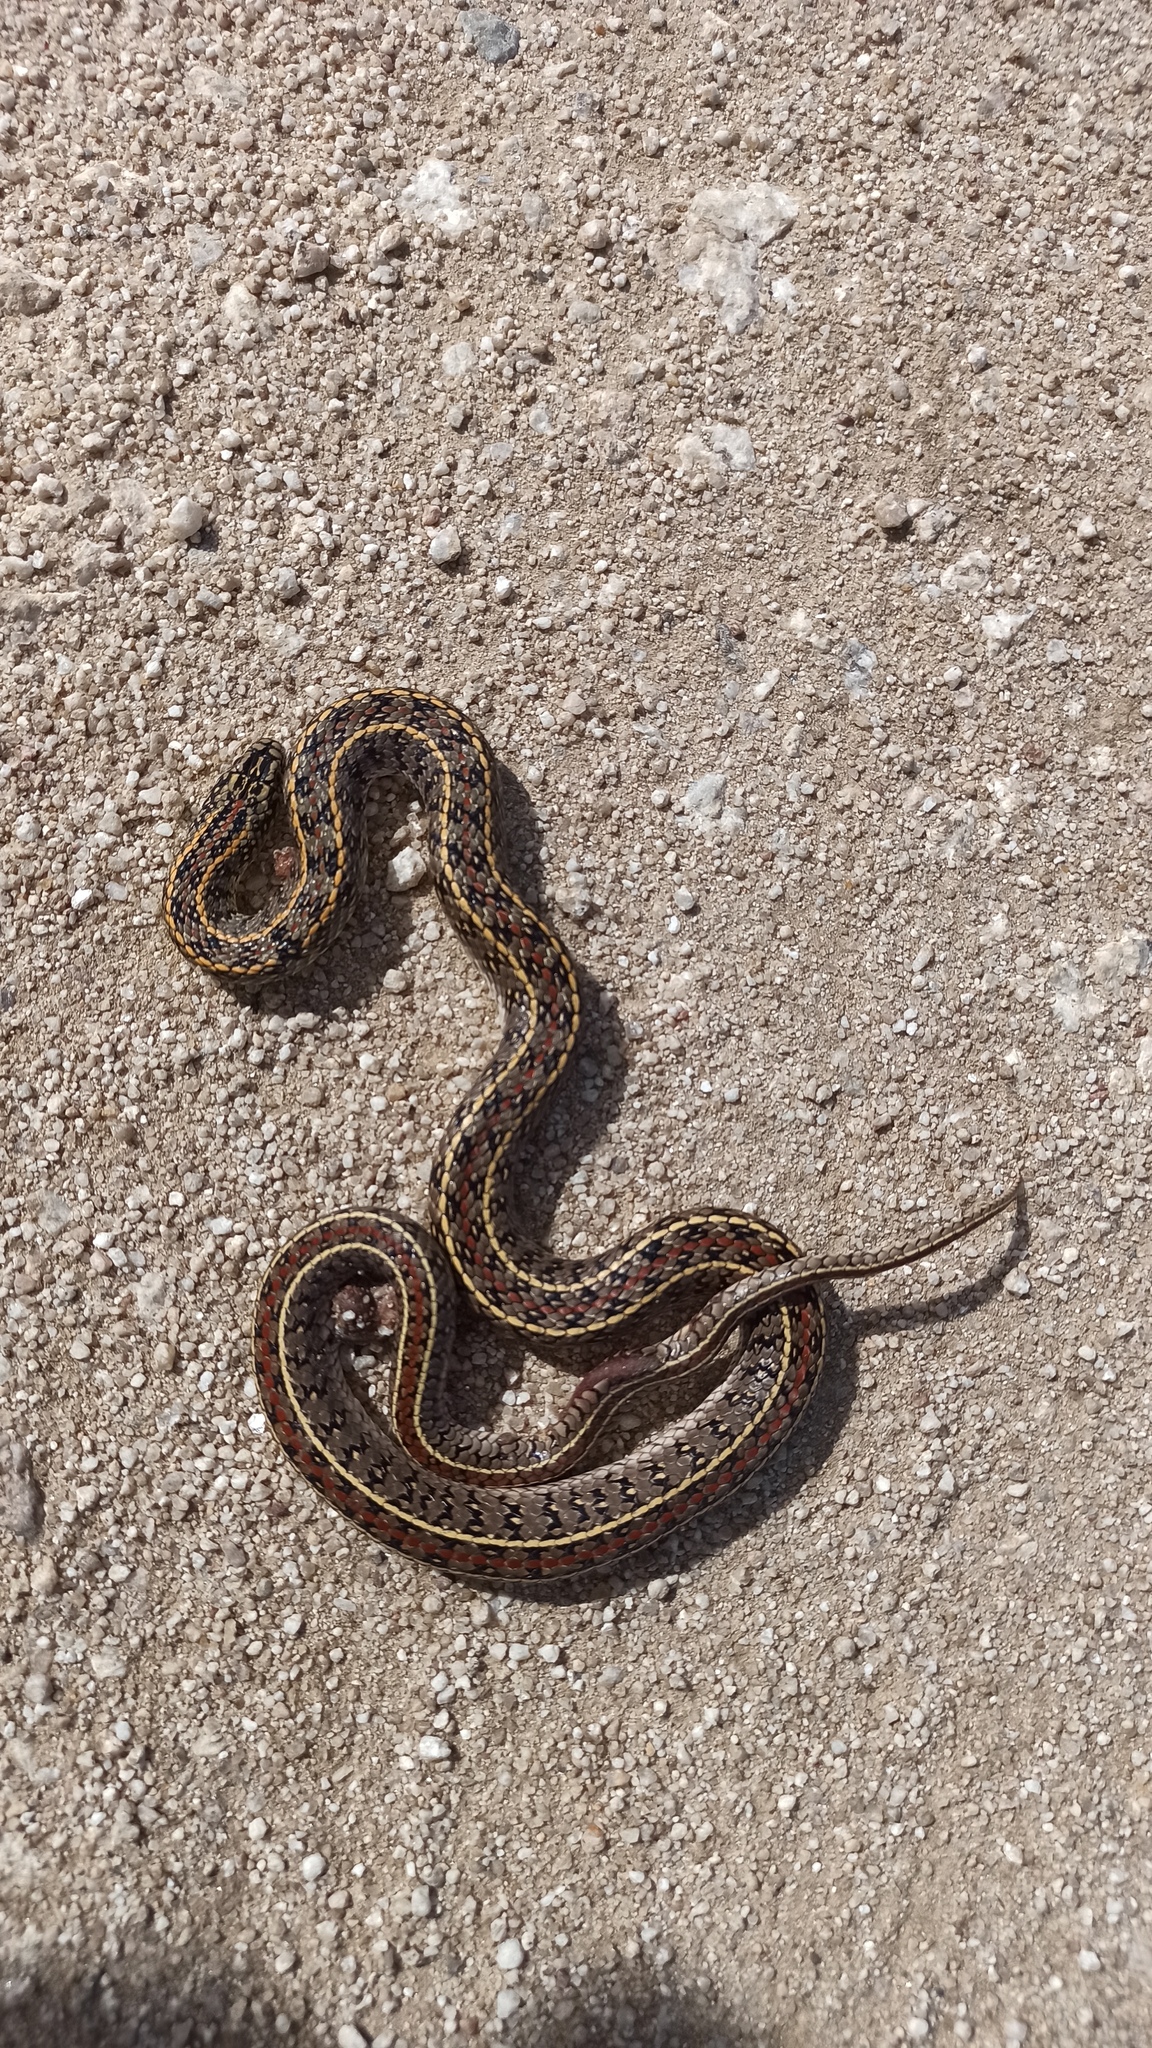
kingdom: Animalia
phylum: Chordata
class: Squamata
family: Colubridae
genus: Lygophis
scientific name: Lygophis anomalus
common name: English common name not available
